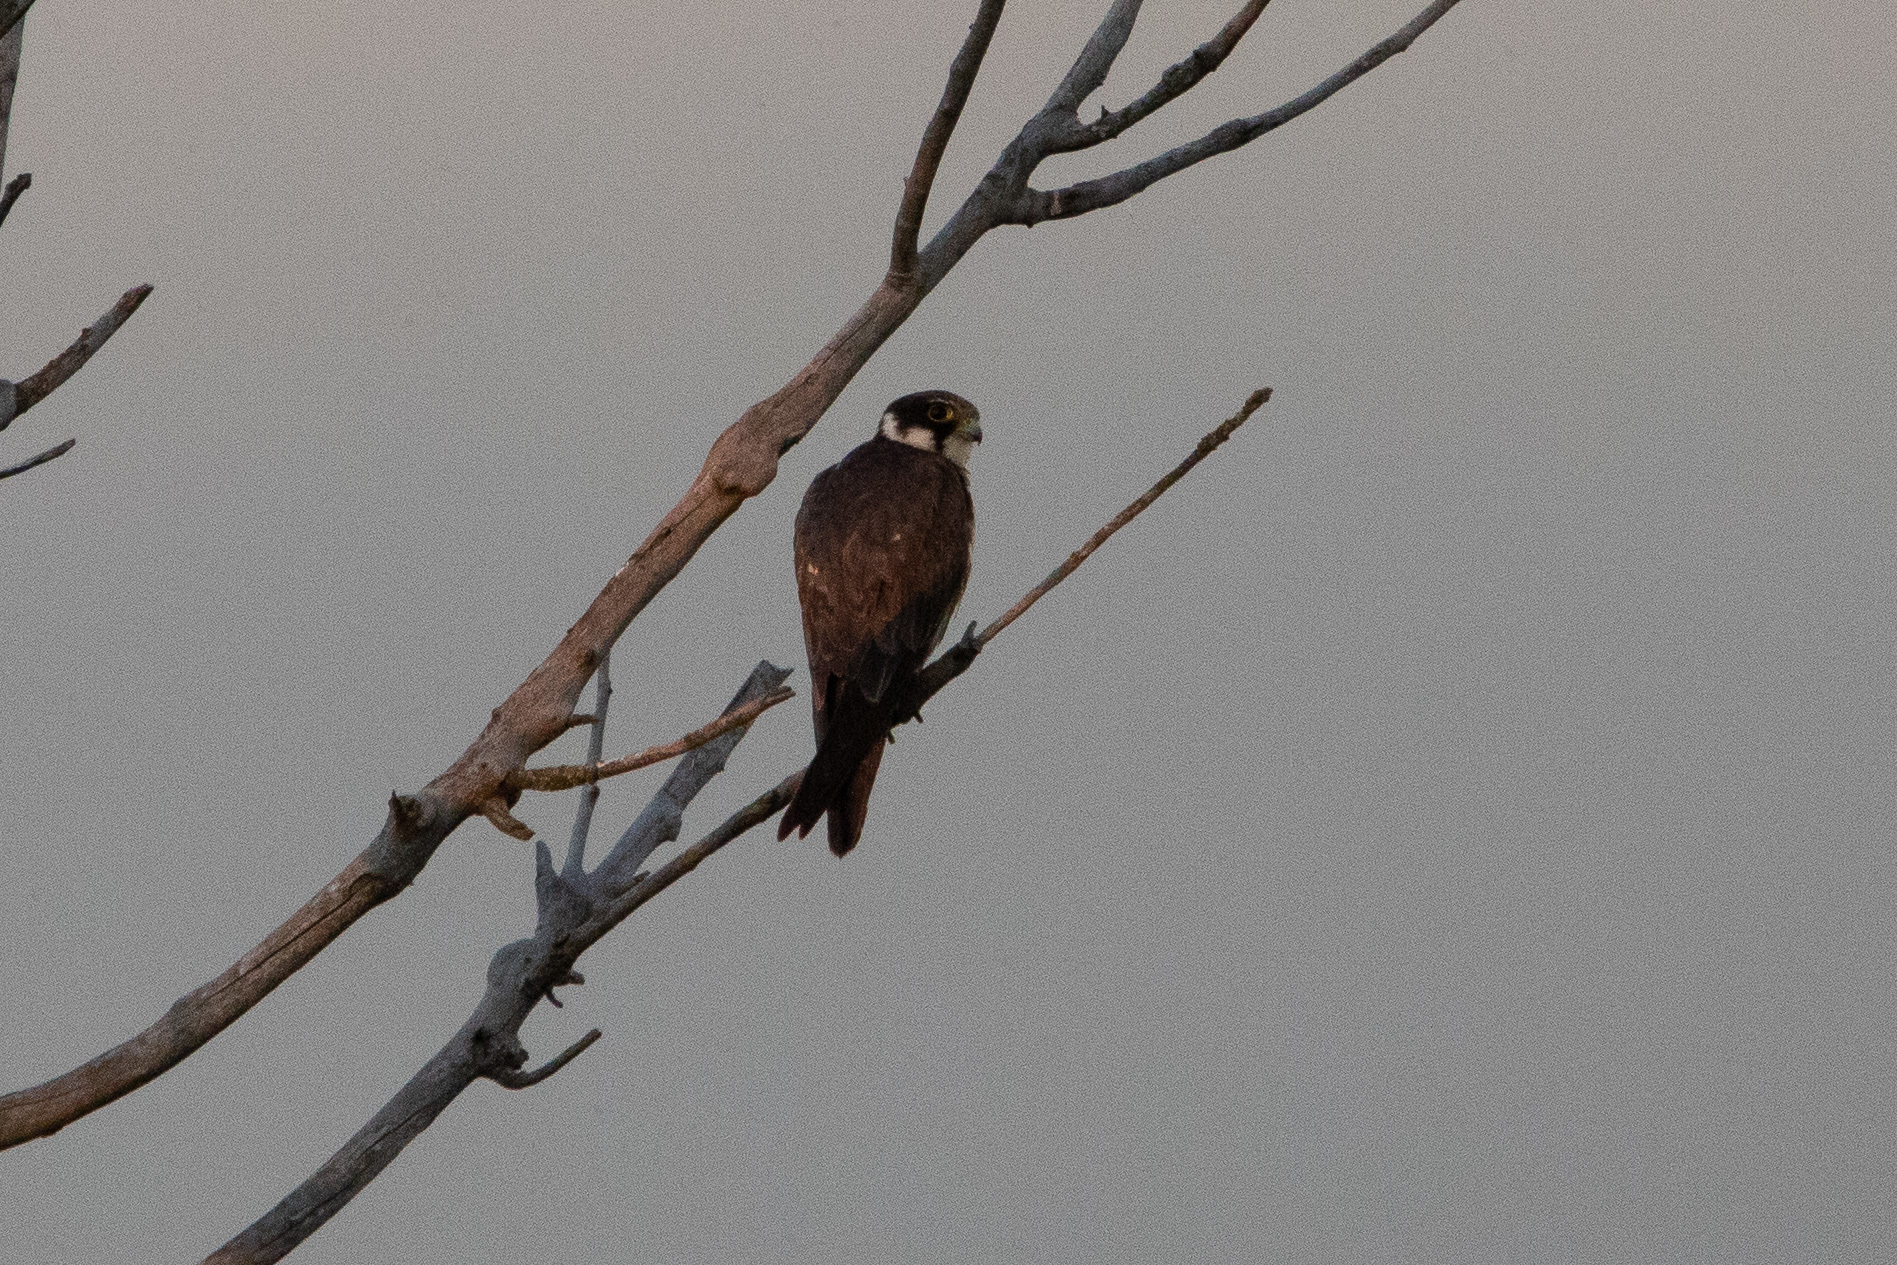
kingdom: Animalia
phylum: Chordata
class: Aves
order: Falconiformes
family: Falconidae
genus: Falco
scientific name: Falco subbuteo
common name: Eurasian hobby
